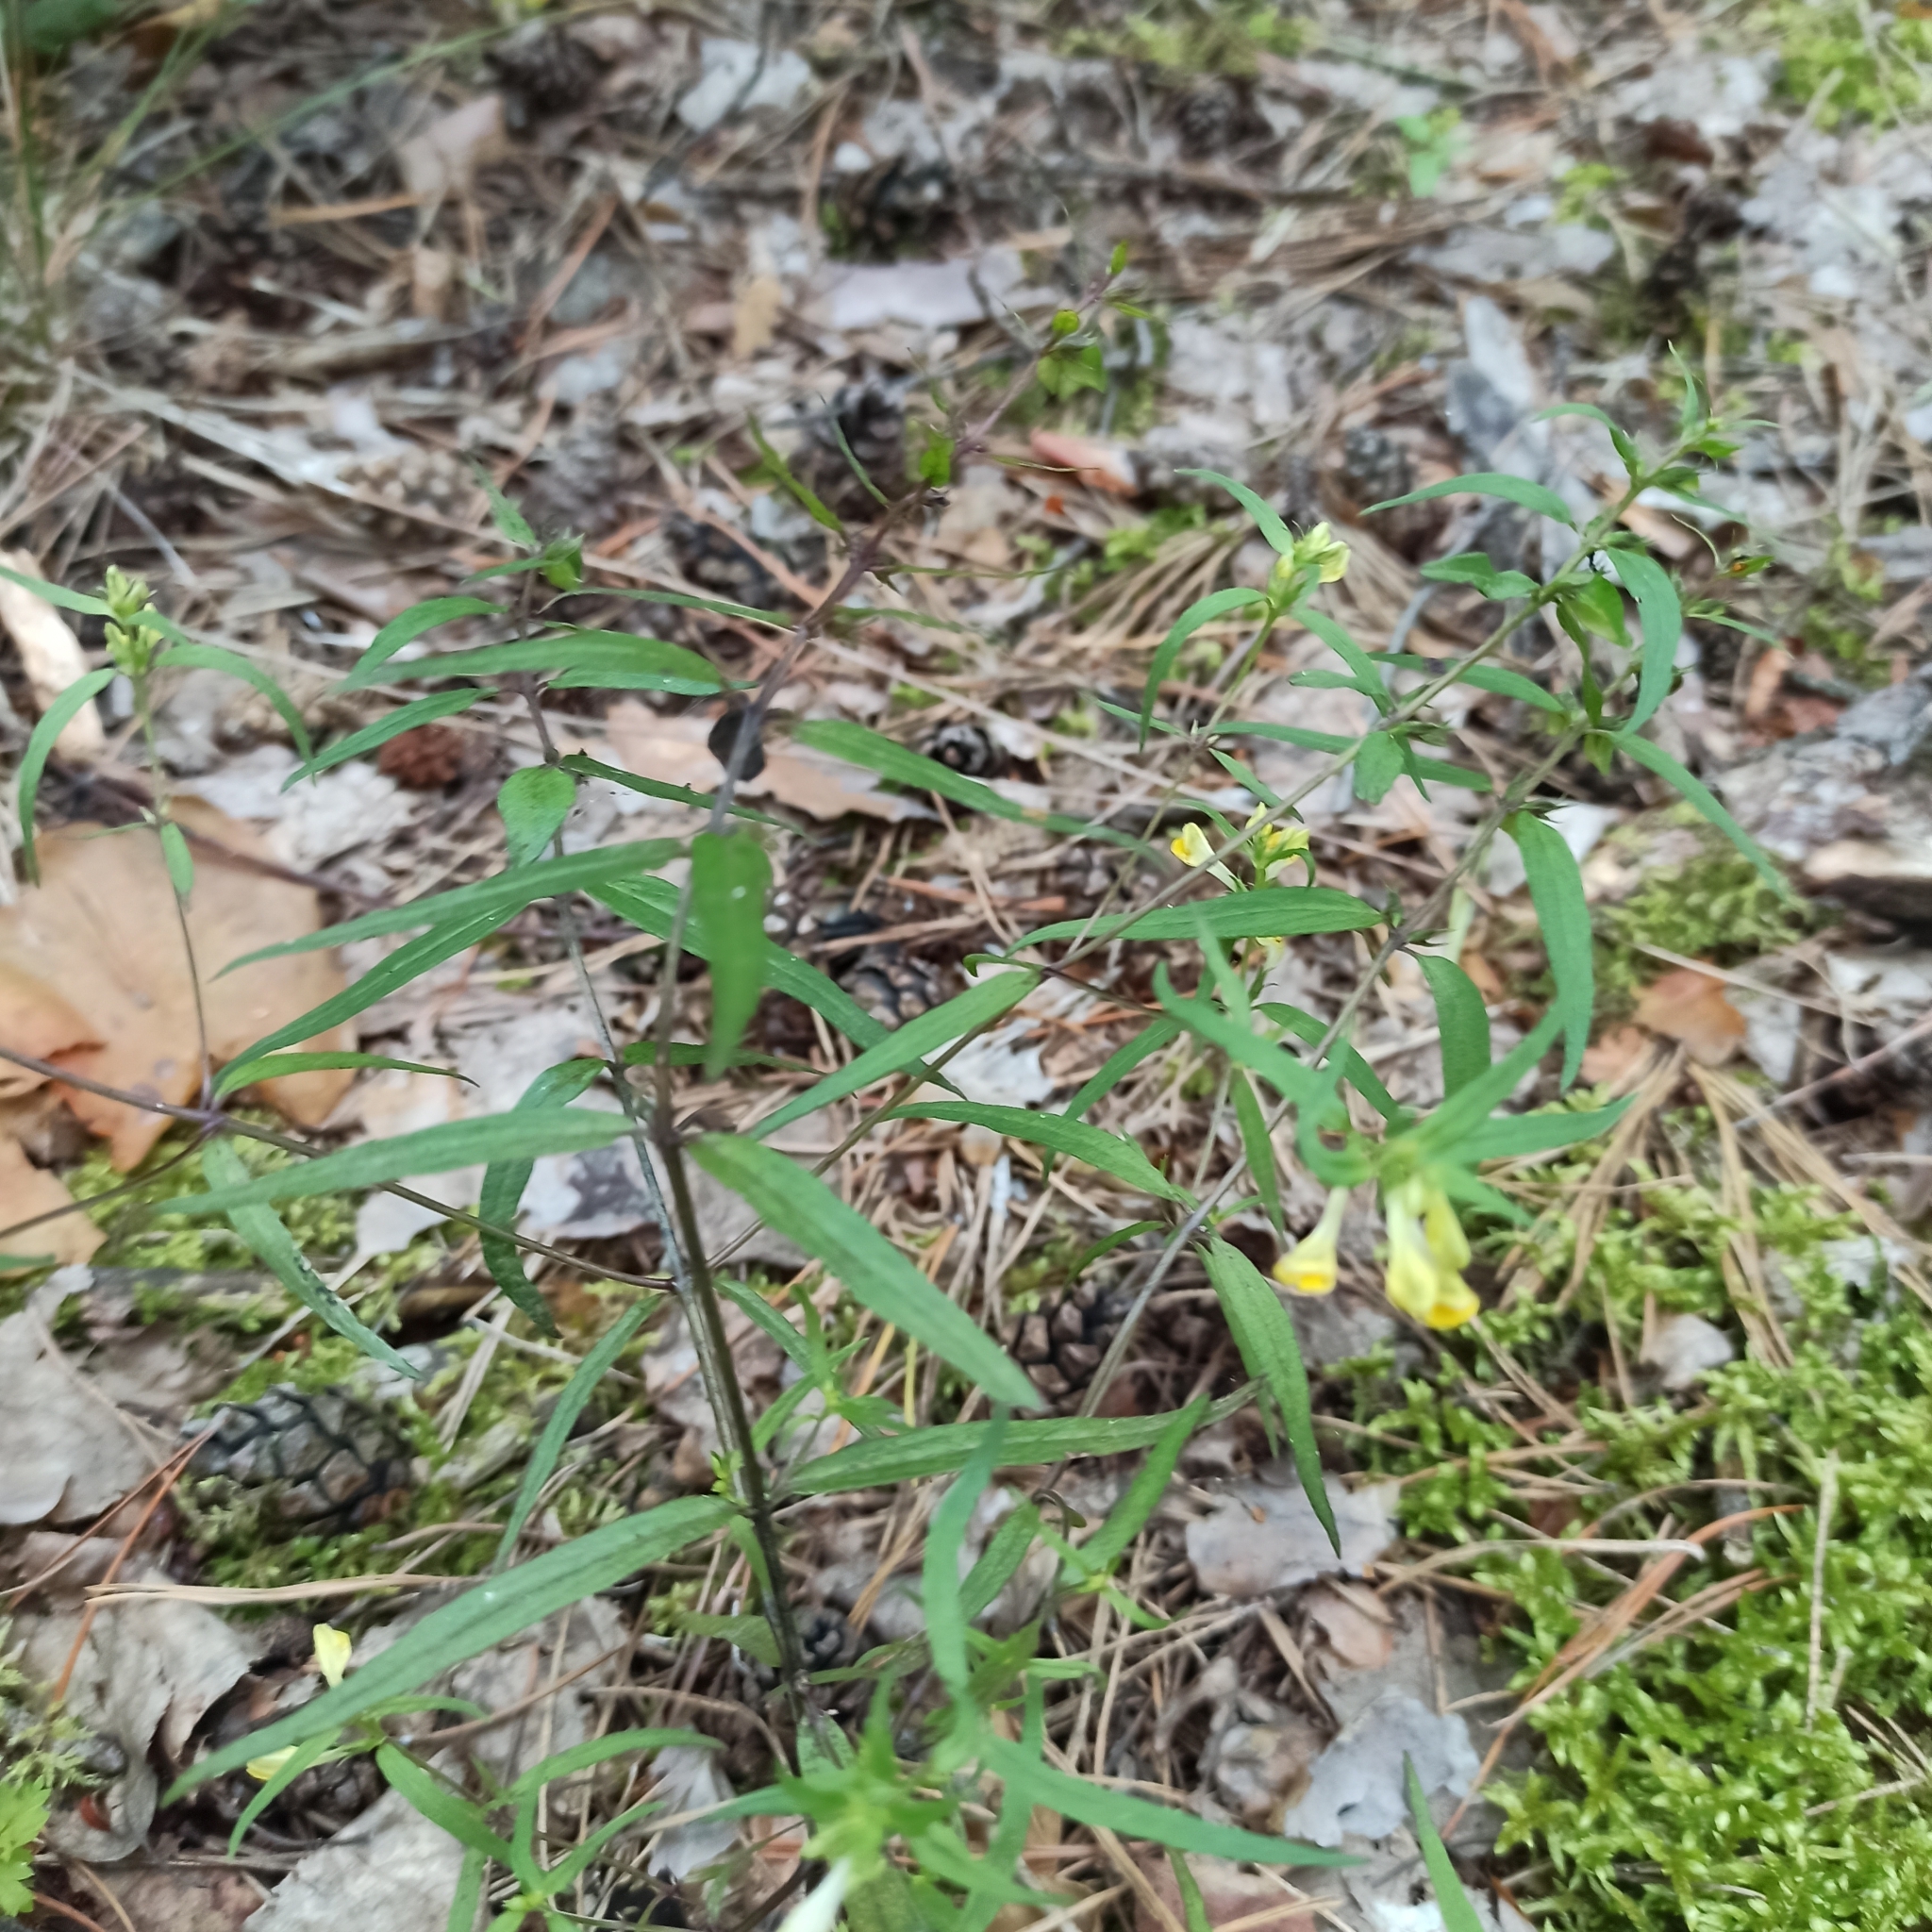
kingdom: Plantae
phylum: Tracheophyta
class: Magnoliopsida
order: Lamiales
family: Orobanchaceae
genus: Melampyrum
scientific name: Melampyrum pratense
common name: Common cow-wheat
